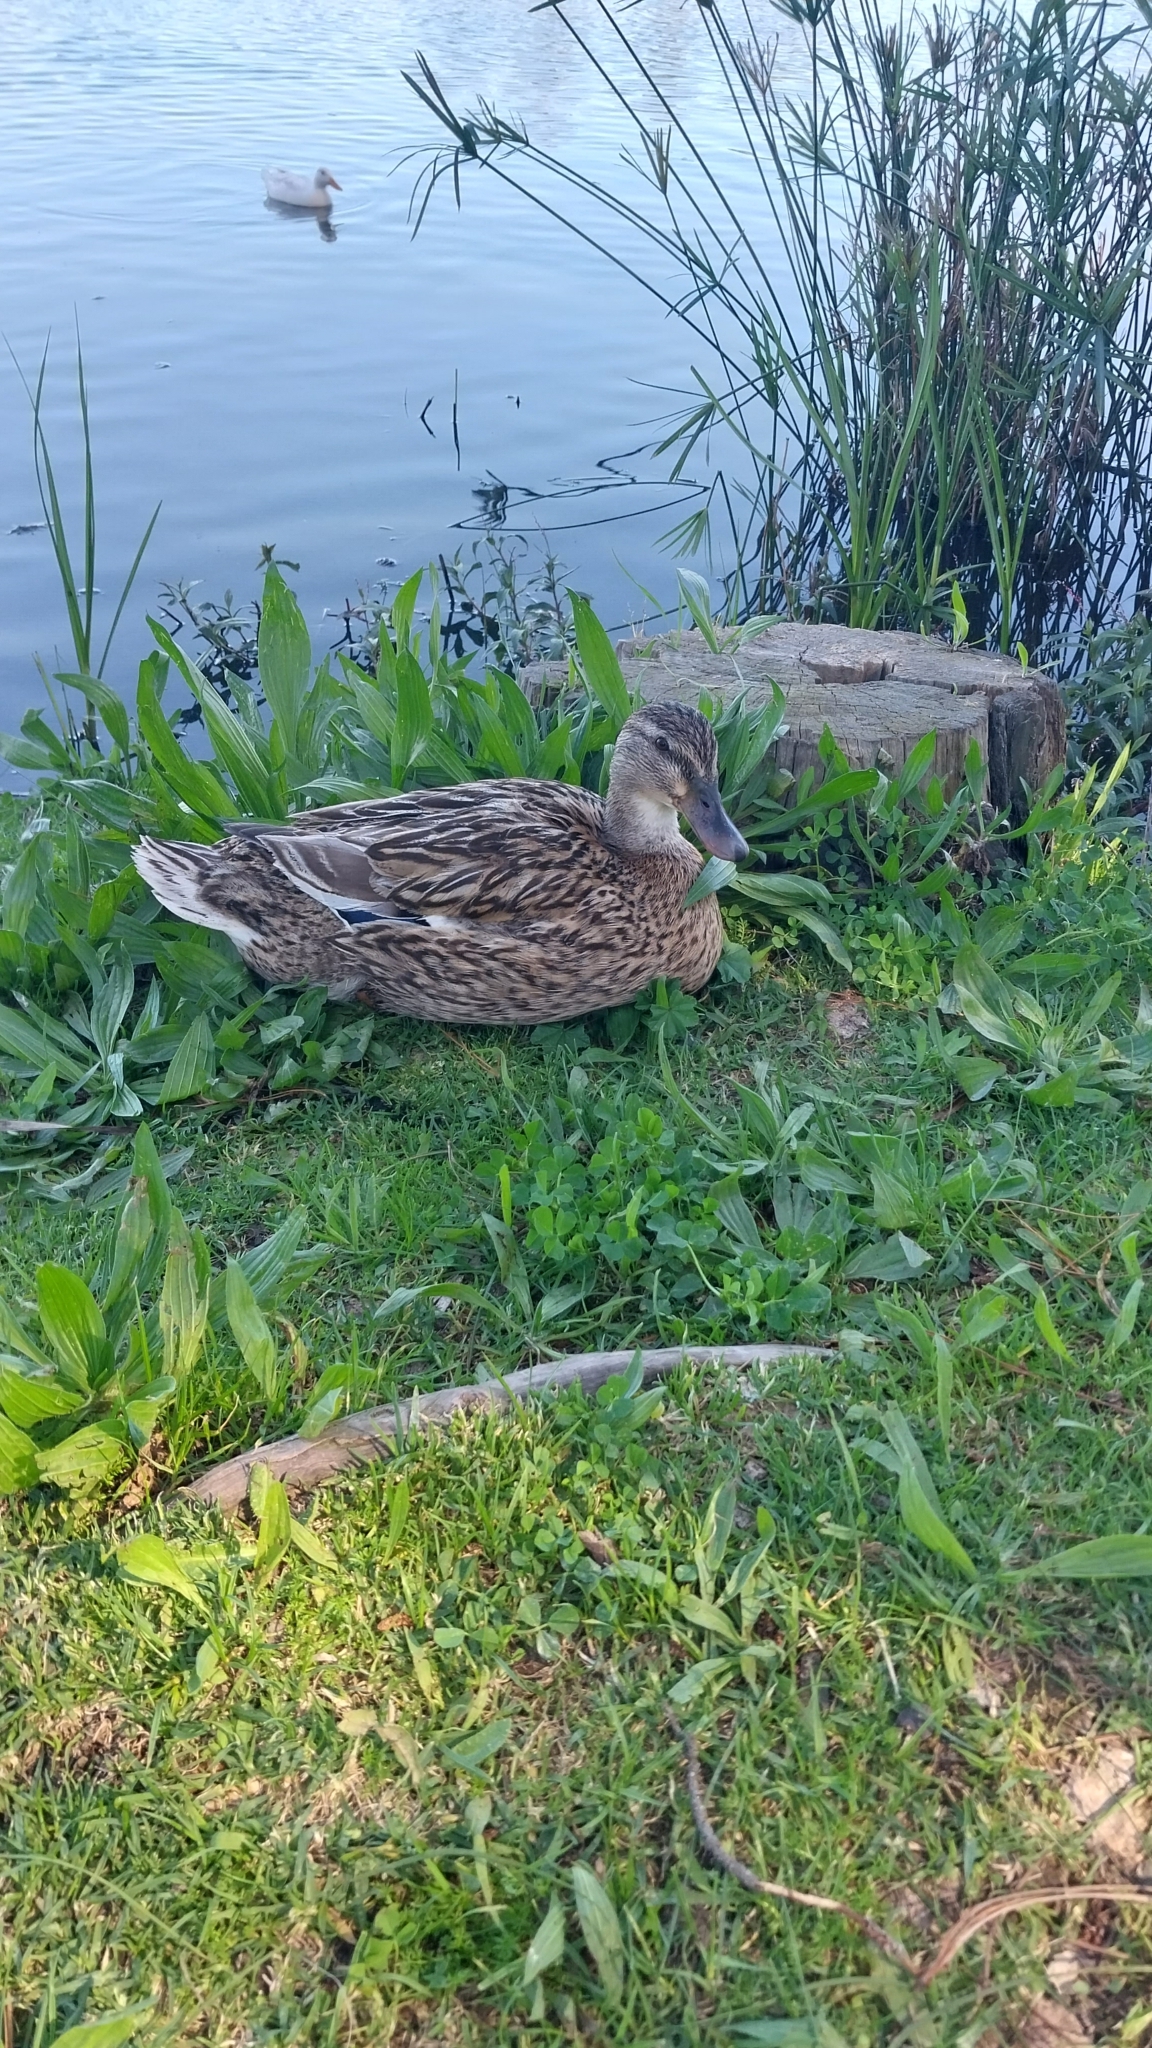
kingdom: Animalia
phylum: Chordata
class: Aves
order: Anseriformes
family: Anatidae
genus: Anas
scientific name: Anas platyrhynchos
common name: Mallard
